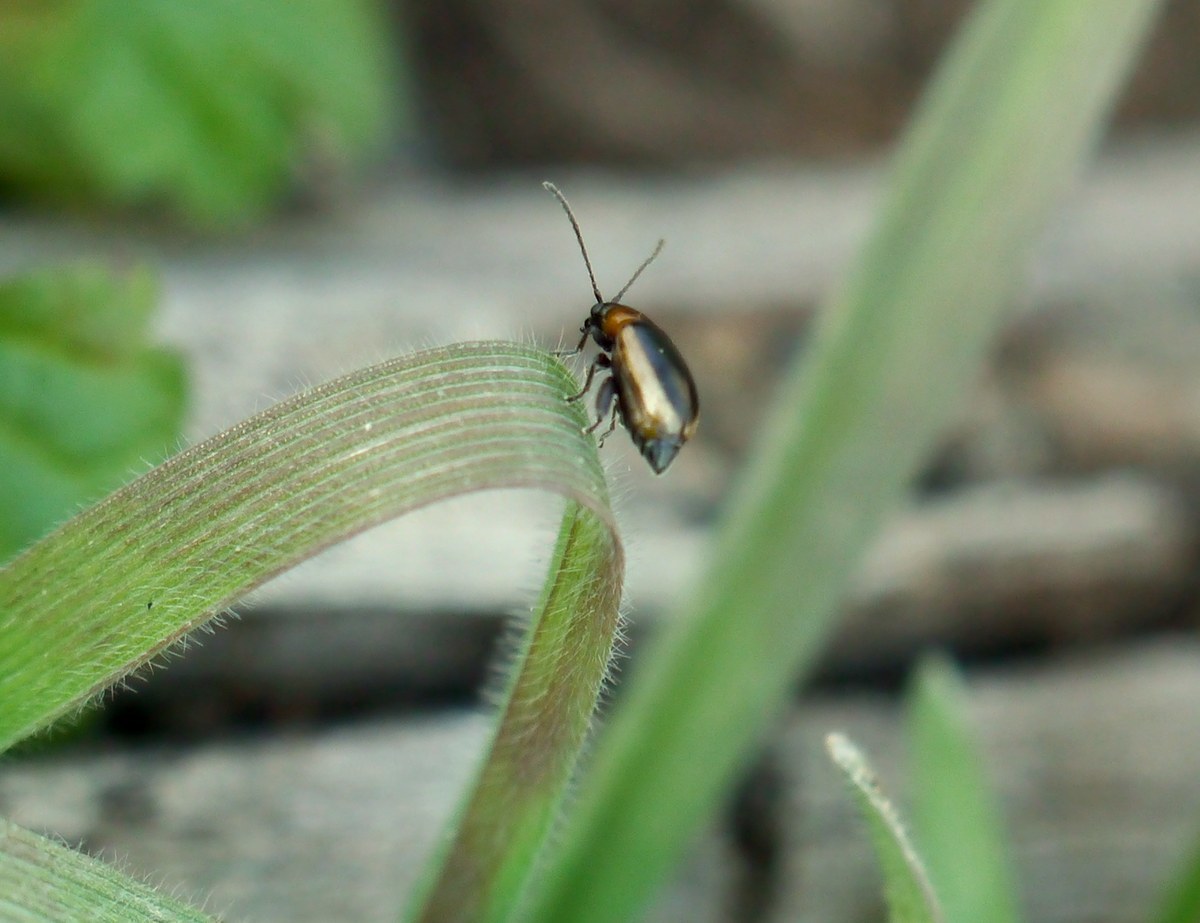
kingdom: Animalia
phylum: Arthropoda
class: Insecta
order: Coleoptera
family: Chrysomelidae
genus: Longitarsus
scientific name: Longitarsus dorsalis
